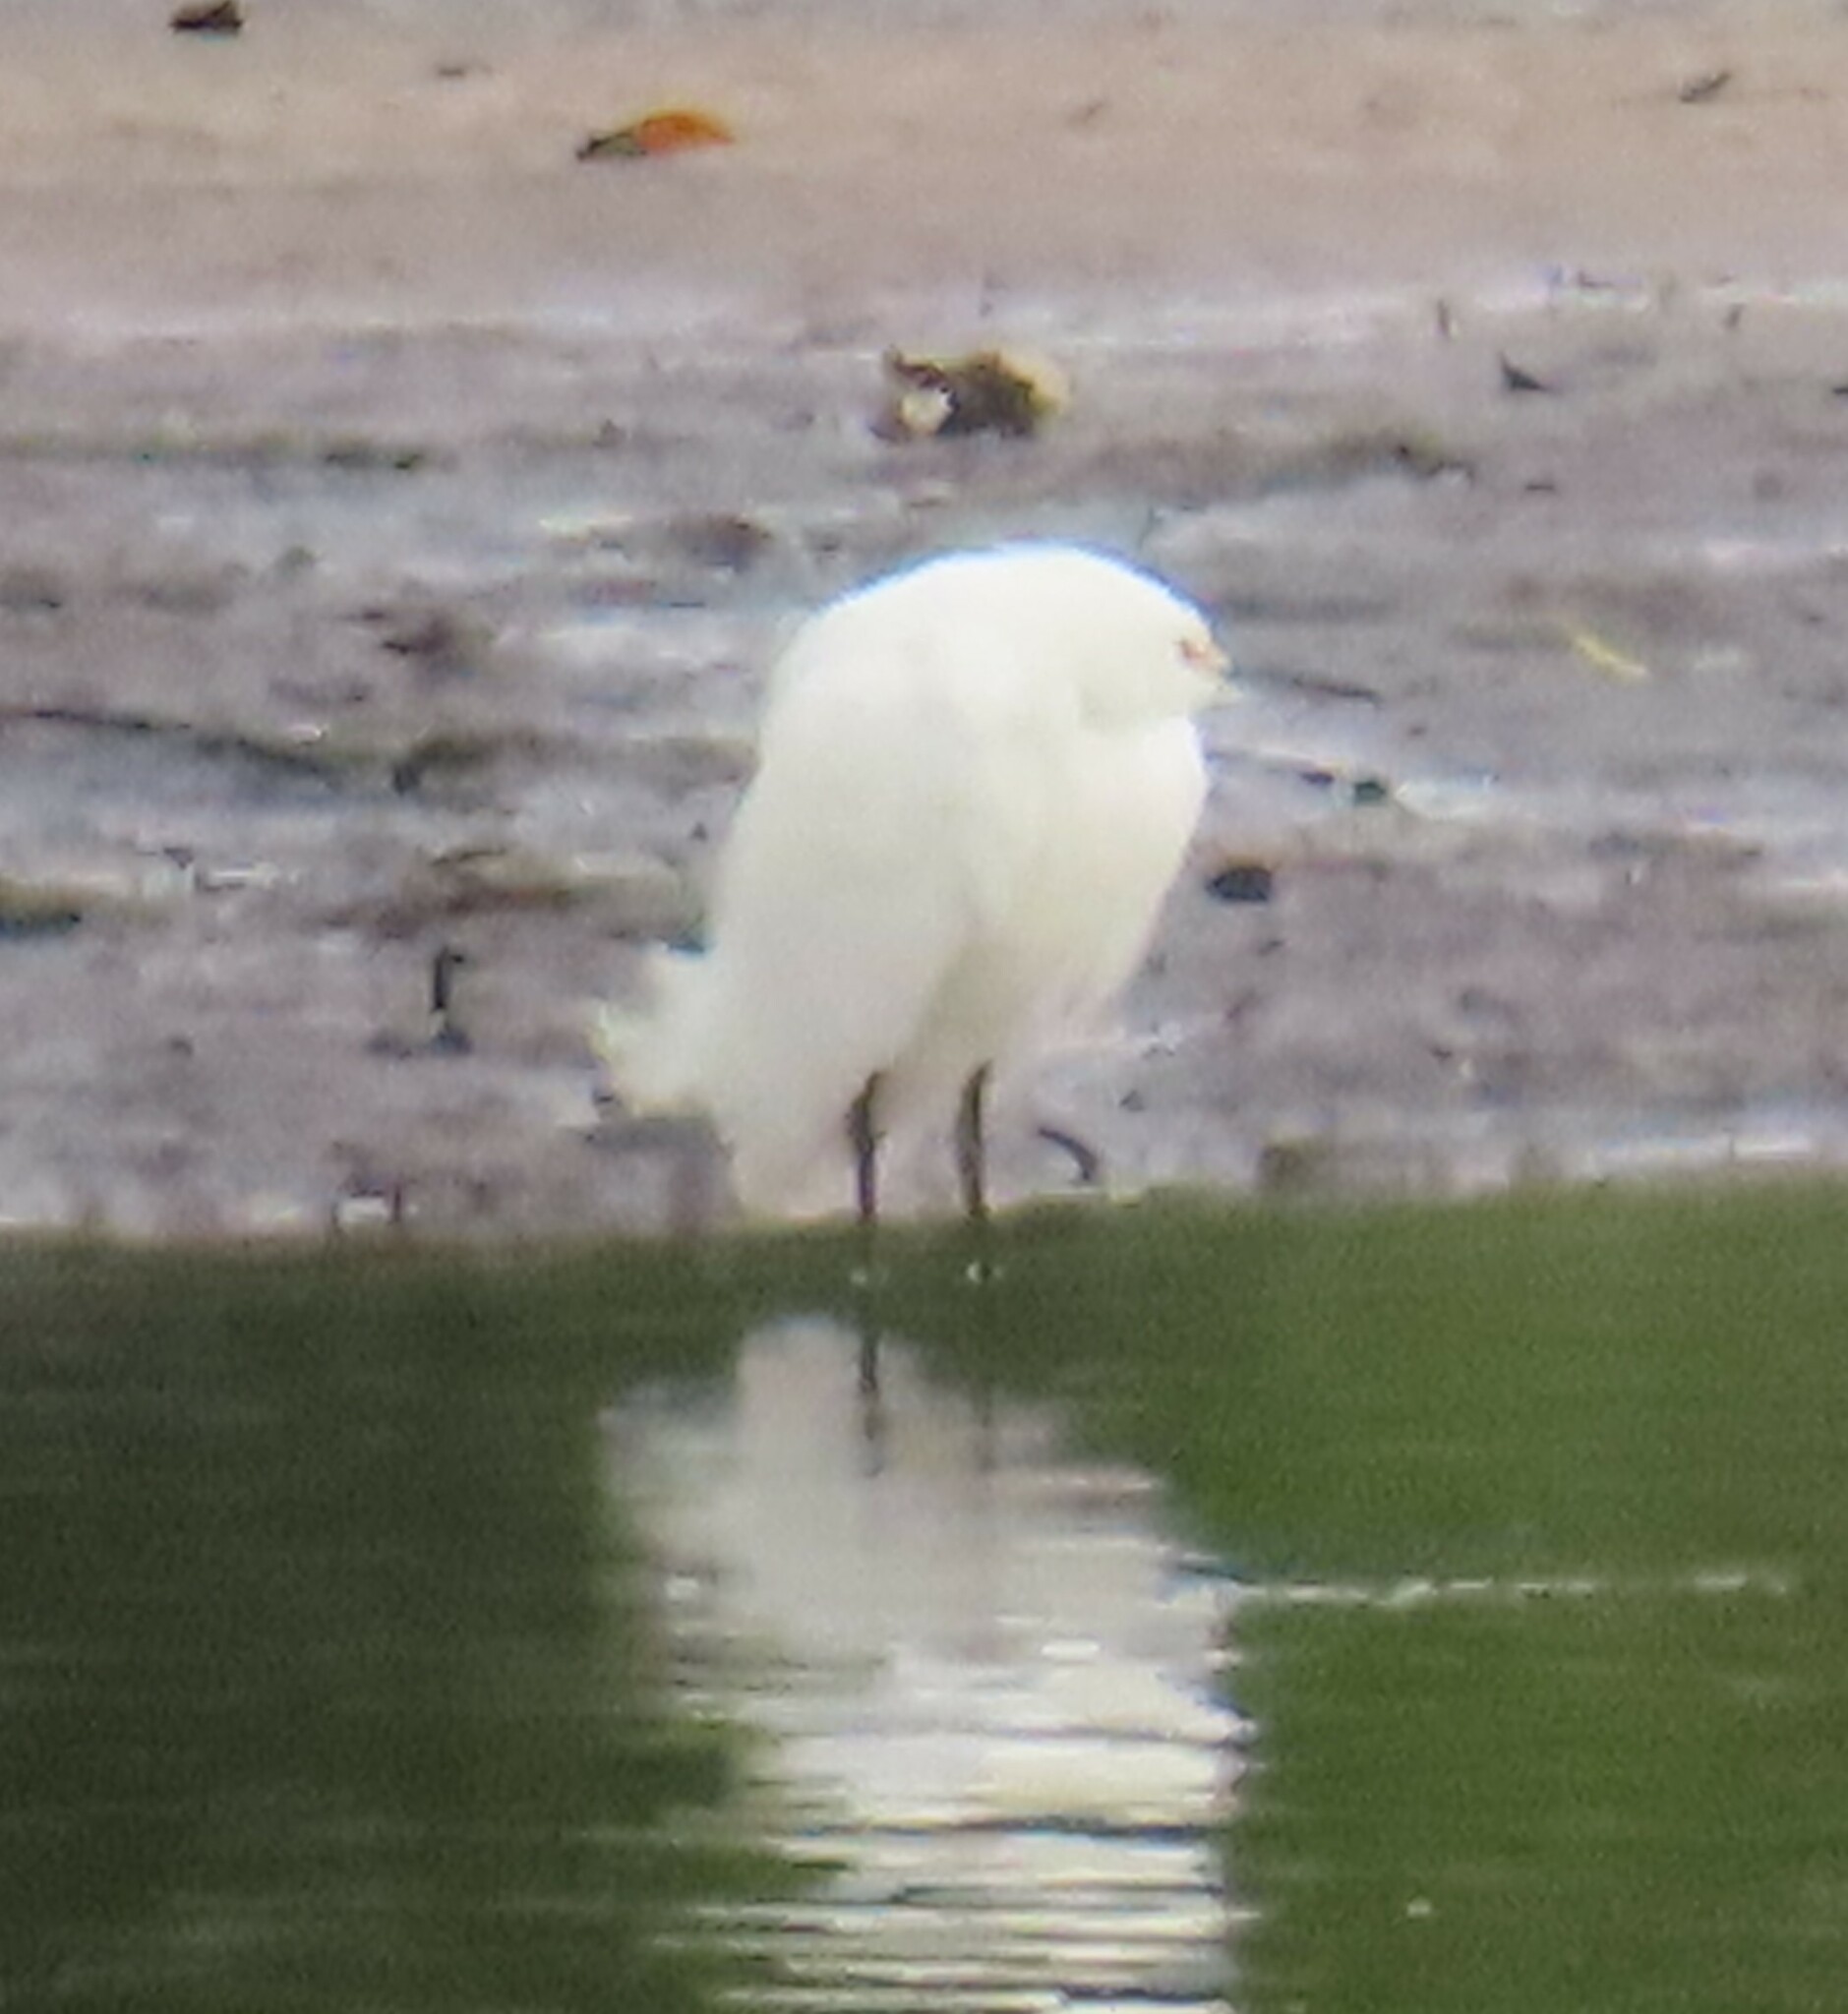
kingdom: Animalia
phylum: Chordata
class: Aves
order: Pelecaniformes
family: Ardeidae
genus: Egretta
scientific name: Egretta thula
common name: Snowy egret
